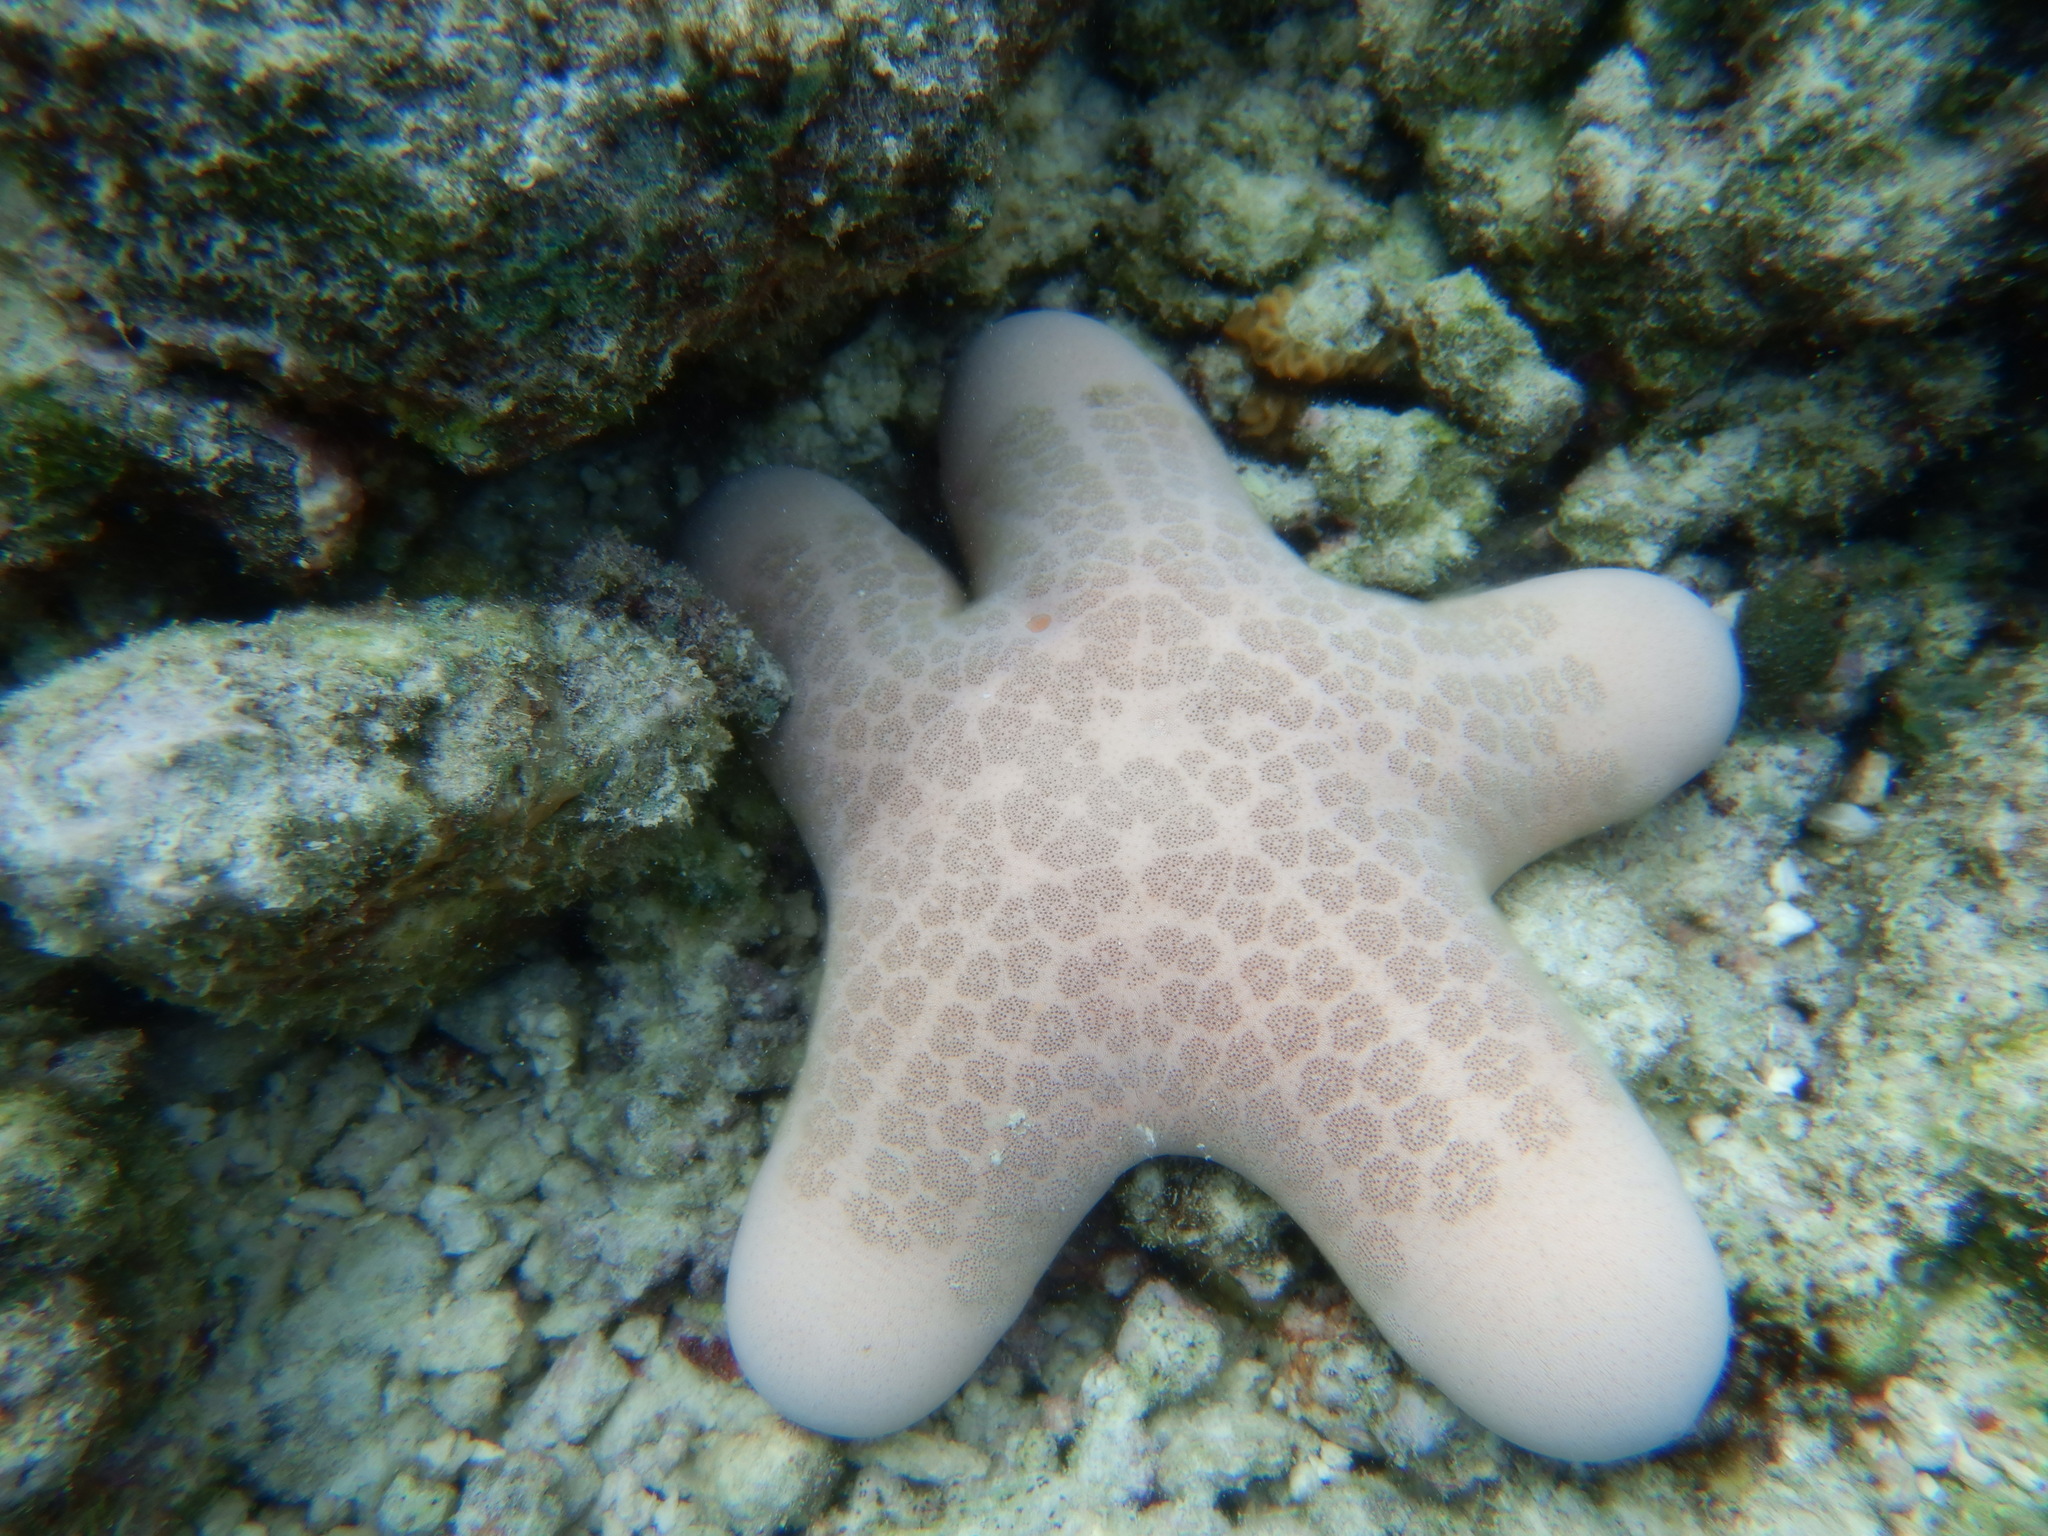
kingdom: Animalia
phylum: Echinodermata
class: Asteroidea
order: Valvatida
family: Oreasteridae
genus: Choriaster
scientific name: Choriaster granulatus
